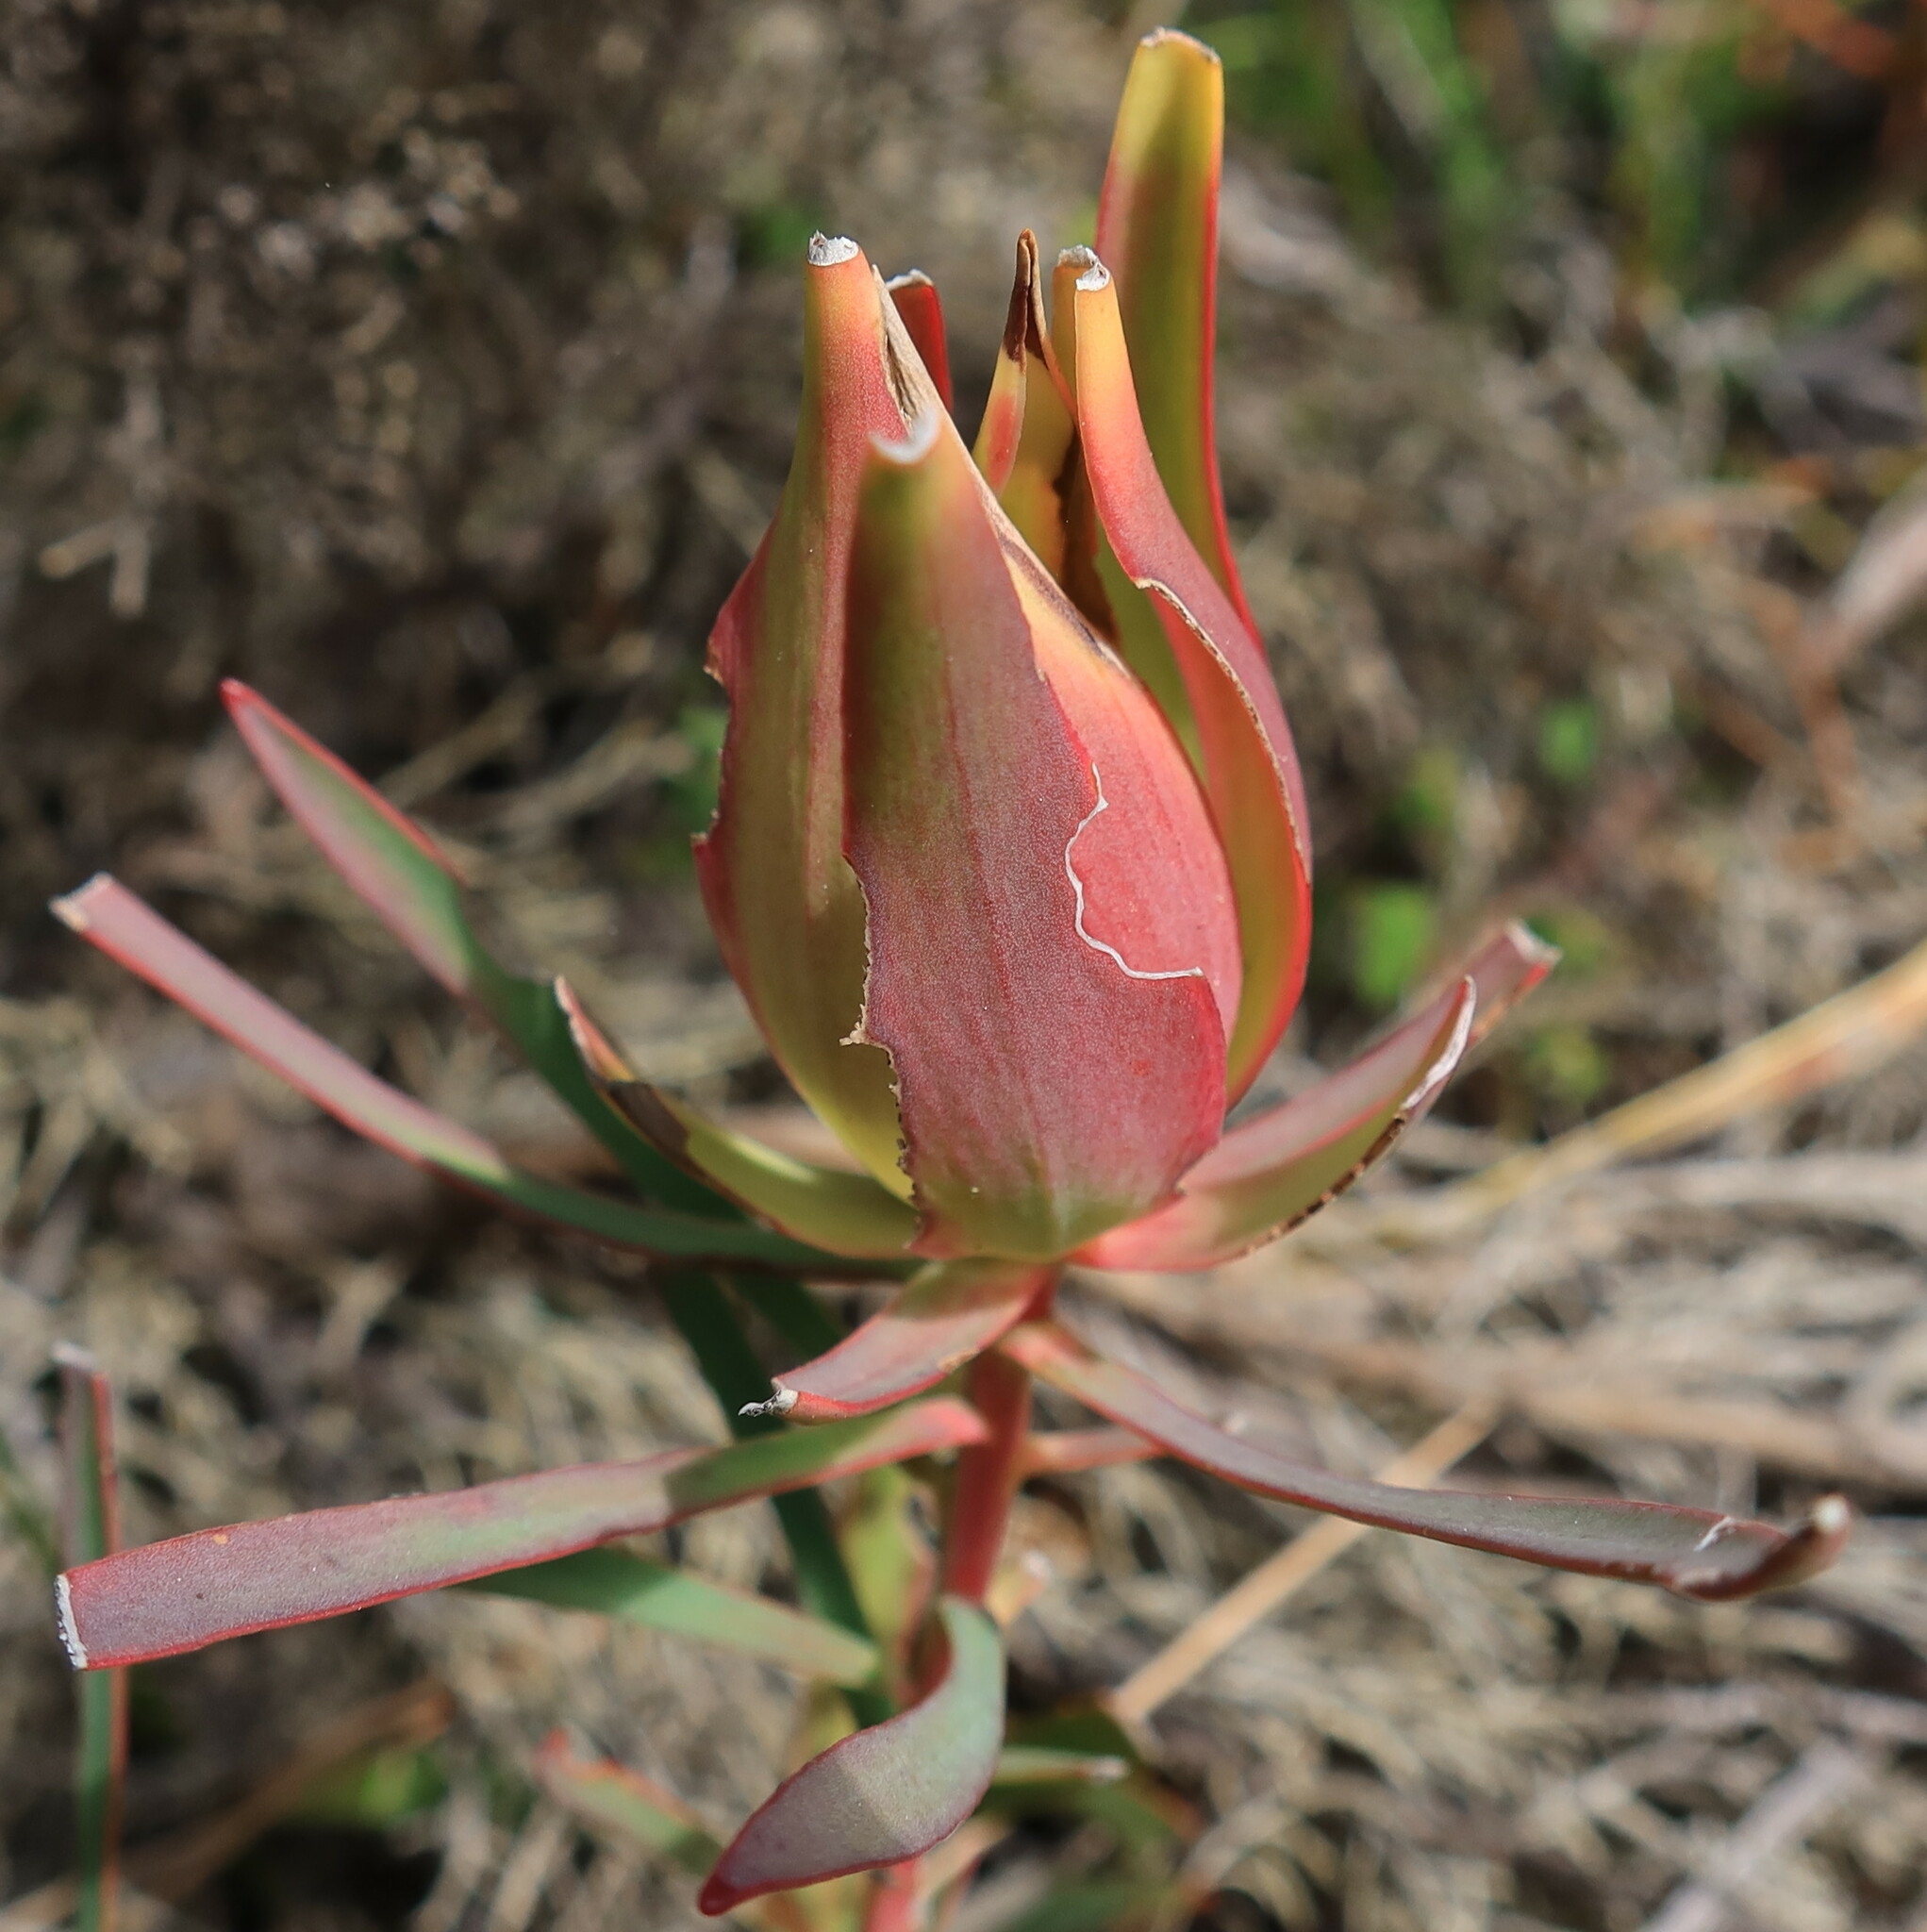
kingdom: Plantae
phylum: Tracheophyta
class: Magnoliopsida
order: Proteales
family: Proteaceae
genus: Leucadendron
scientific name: Leucadendron salignum
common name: Common sunshine conebush
